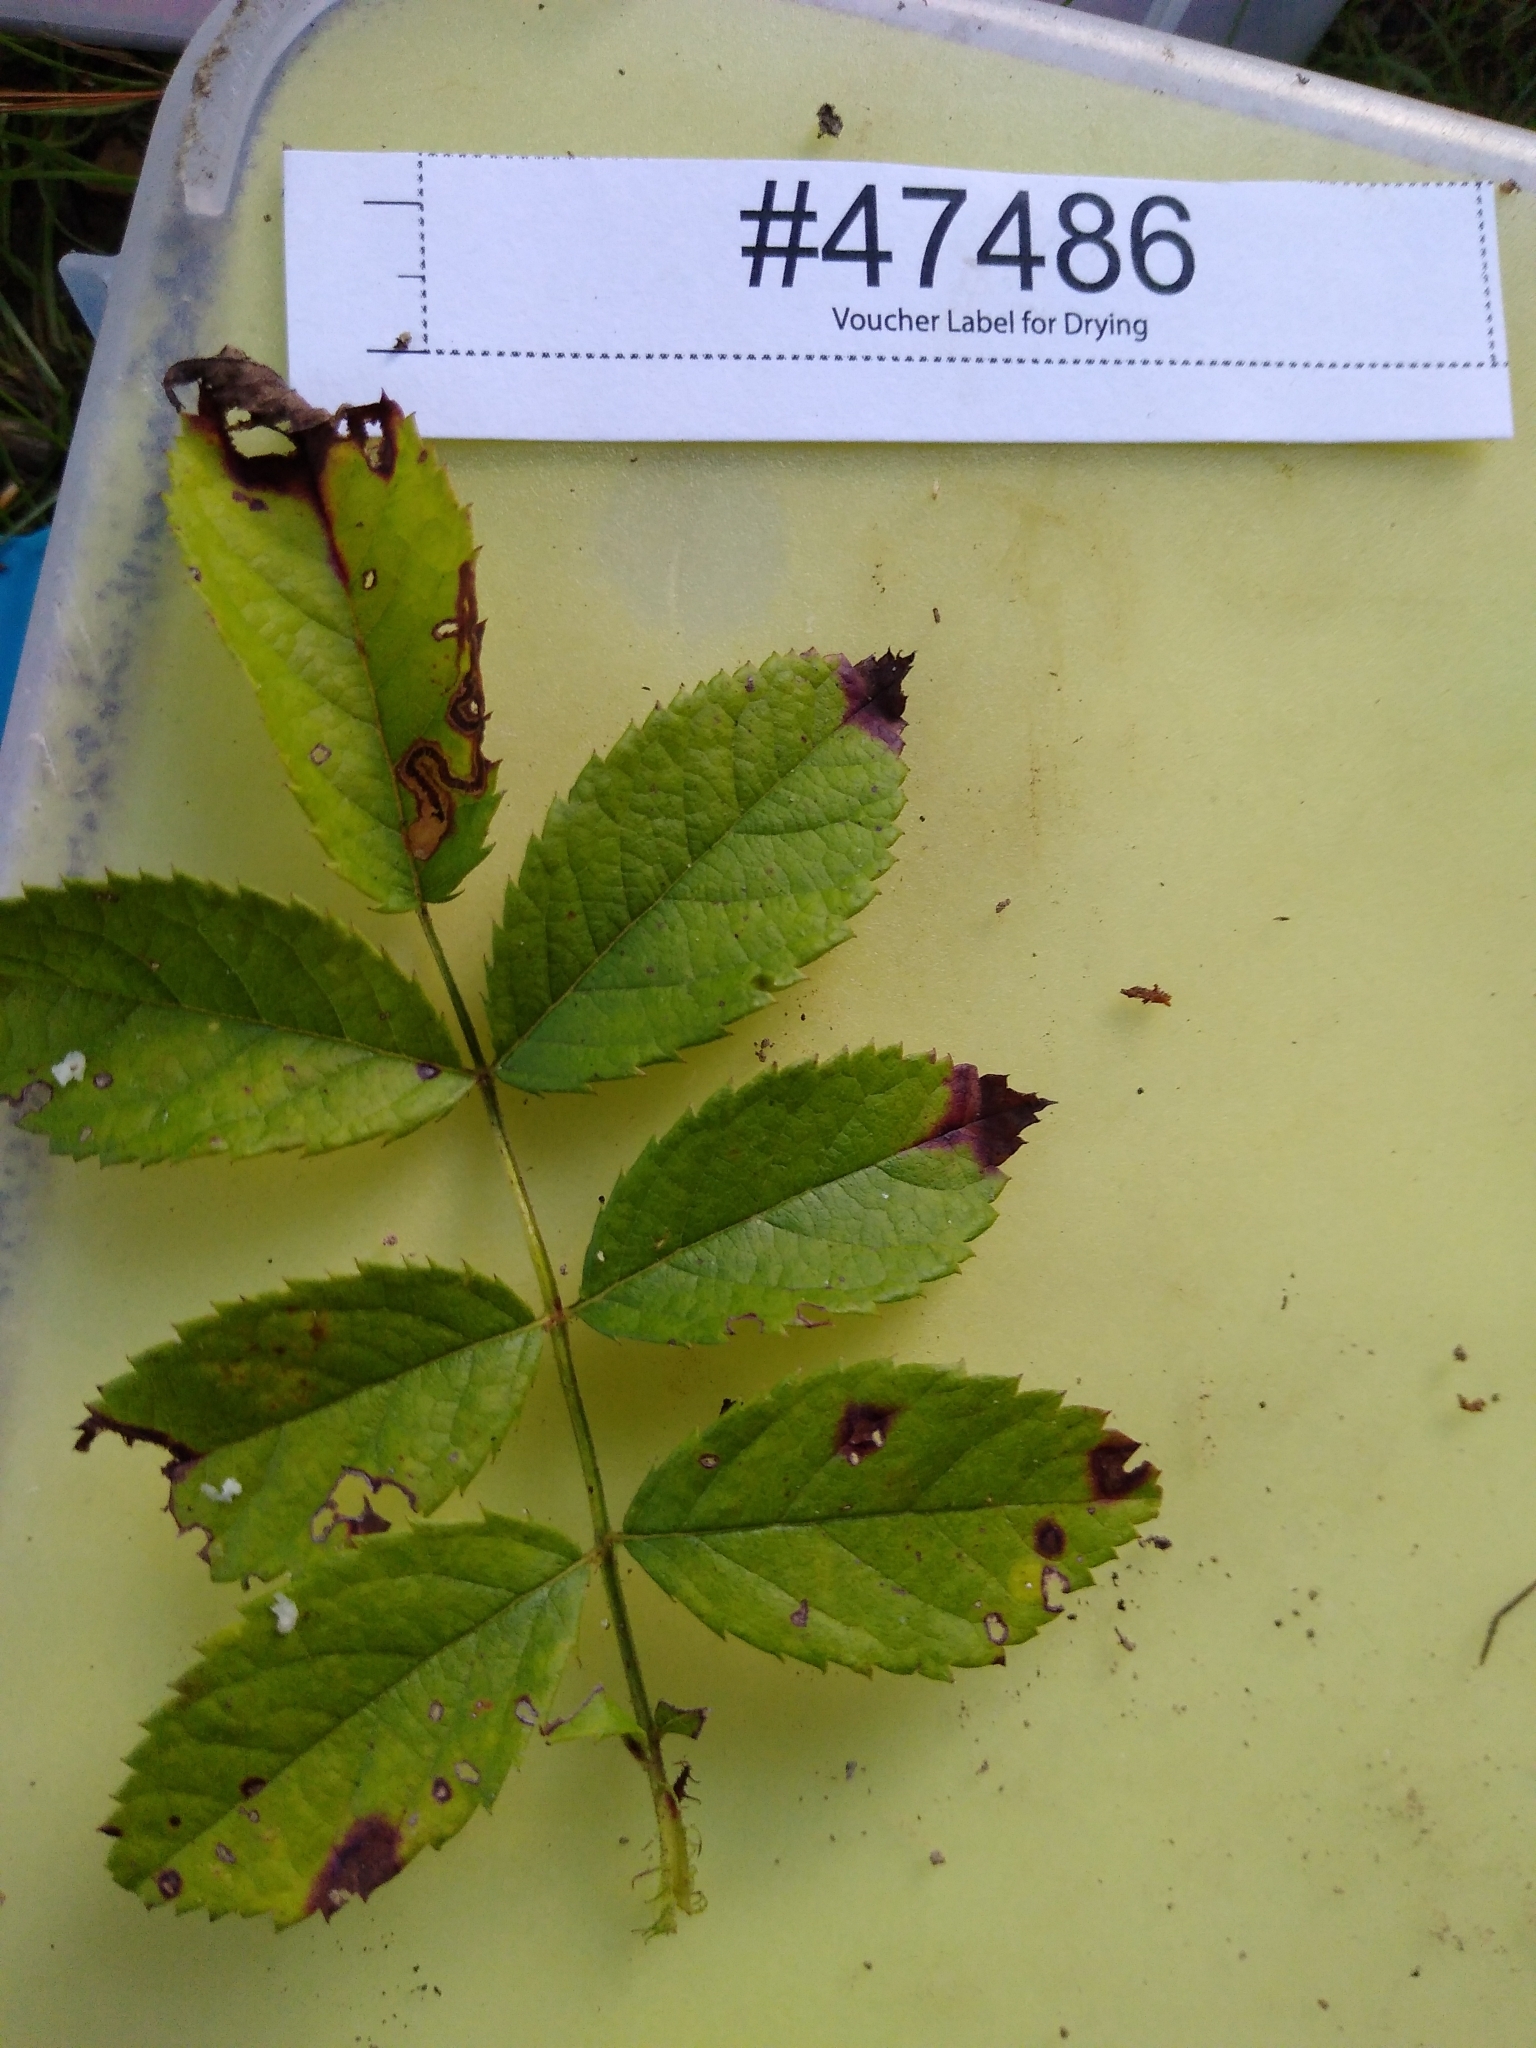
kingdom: Fungi
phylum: Ascomycota
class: Leotiomycetes
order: Helotiales
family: Drepanopezizaceae
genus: Diplocarpon
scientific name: Diplocarpon rosae
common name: Rose black-spot
